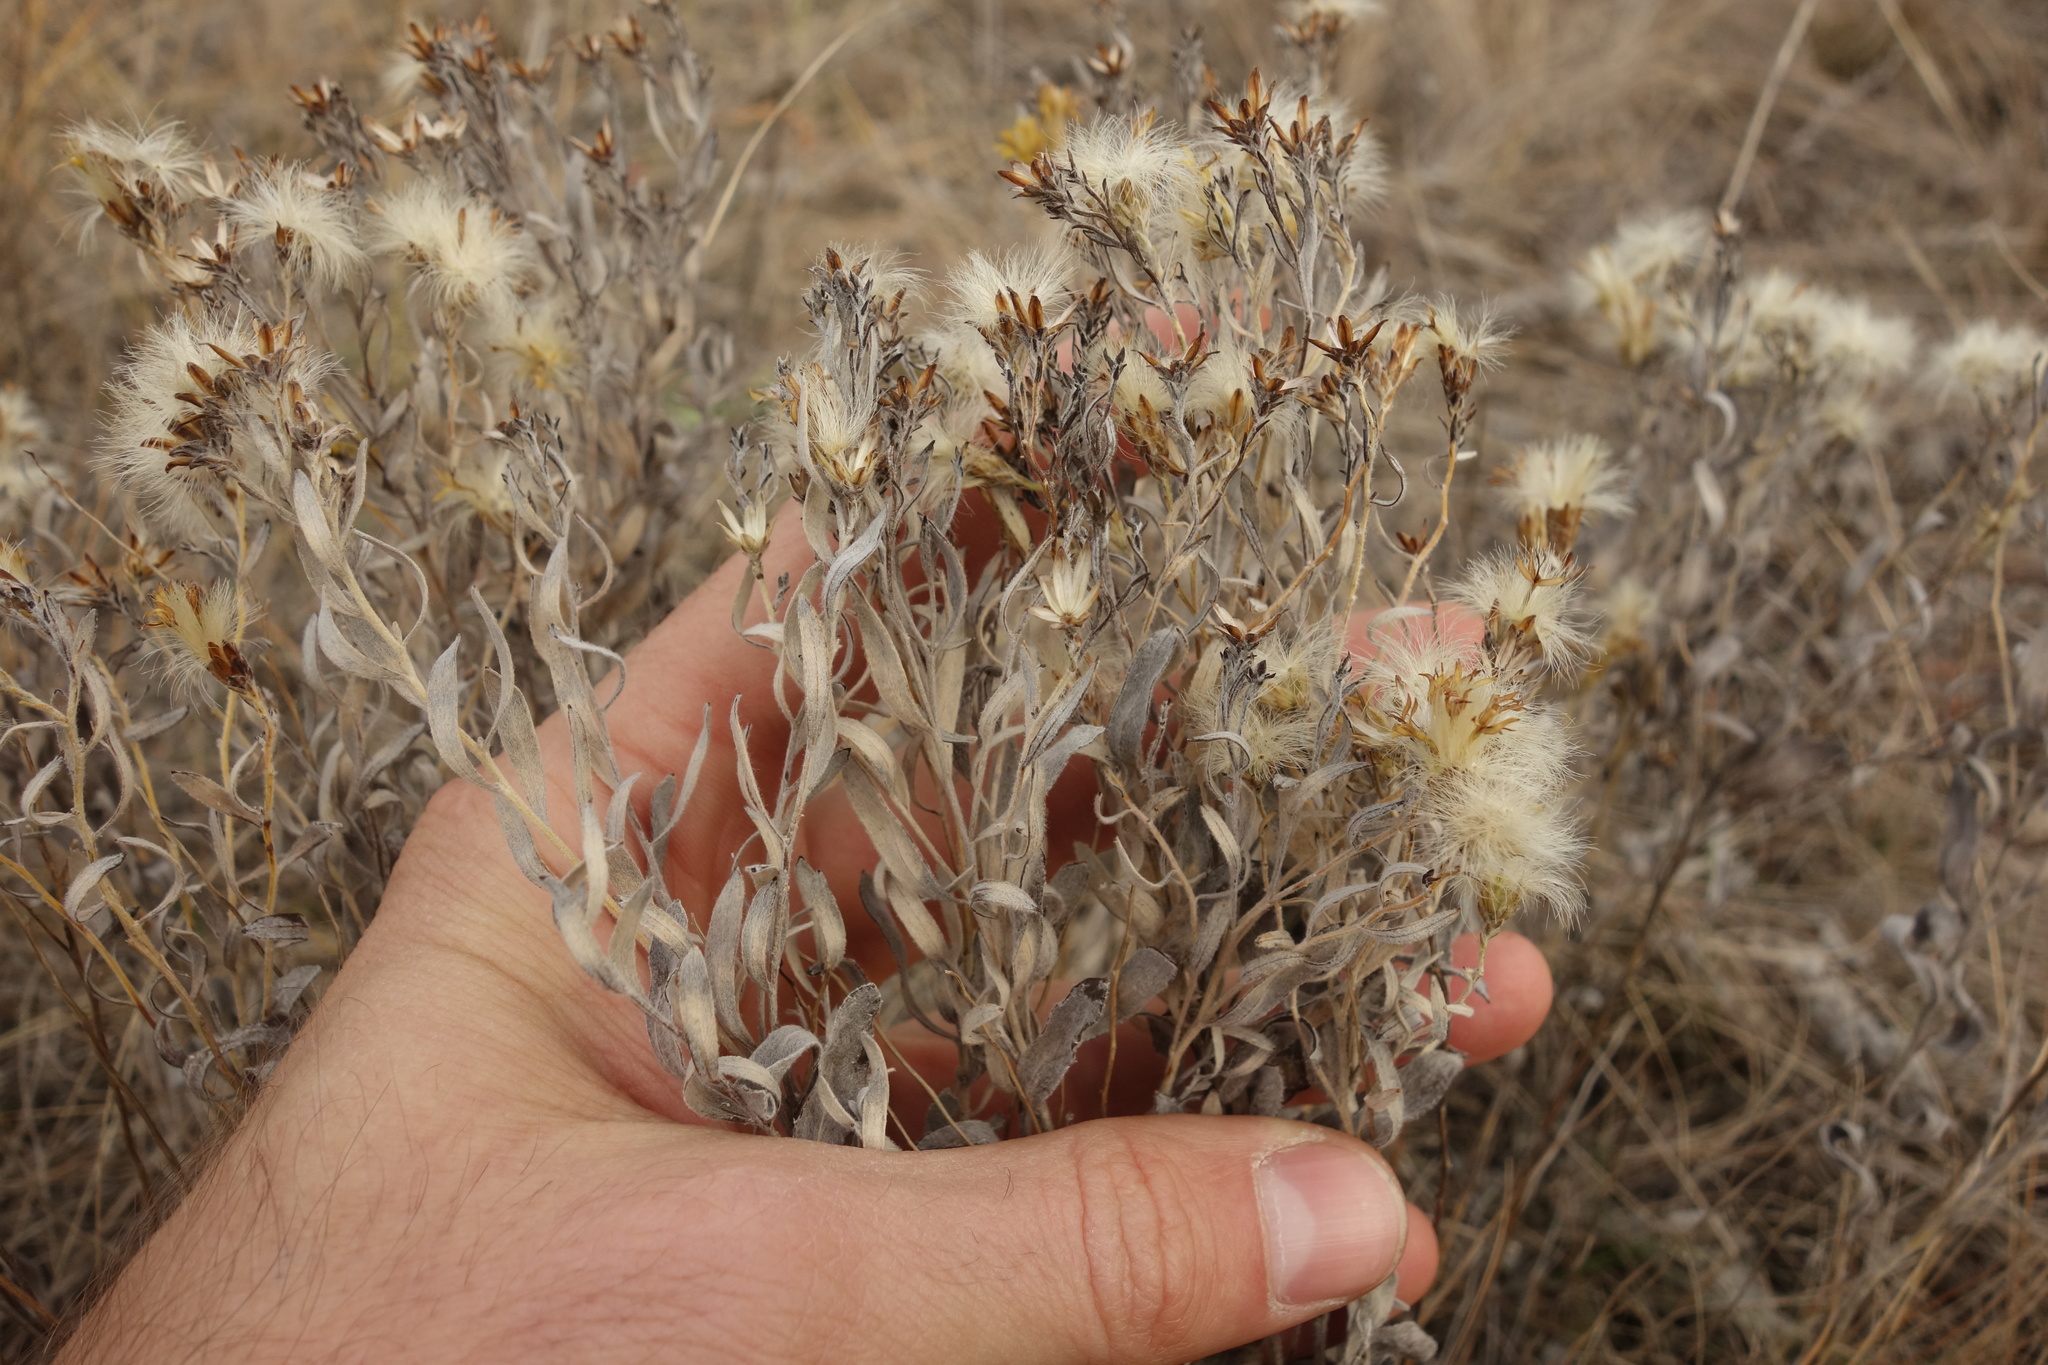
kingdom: Plantae
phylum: Tracheophyta
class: Magnoliopsida
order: Asterales
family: Asteraceae
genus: Galatella
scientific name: Galatella villosa
